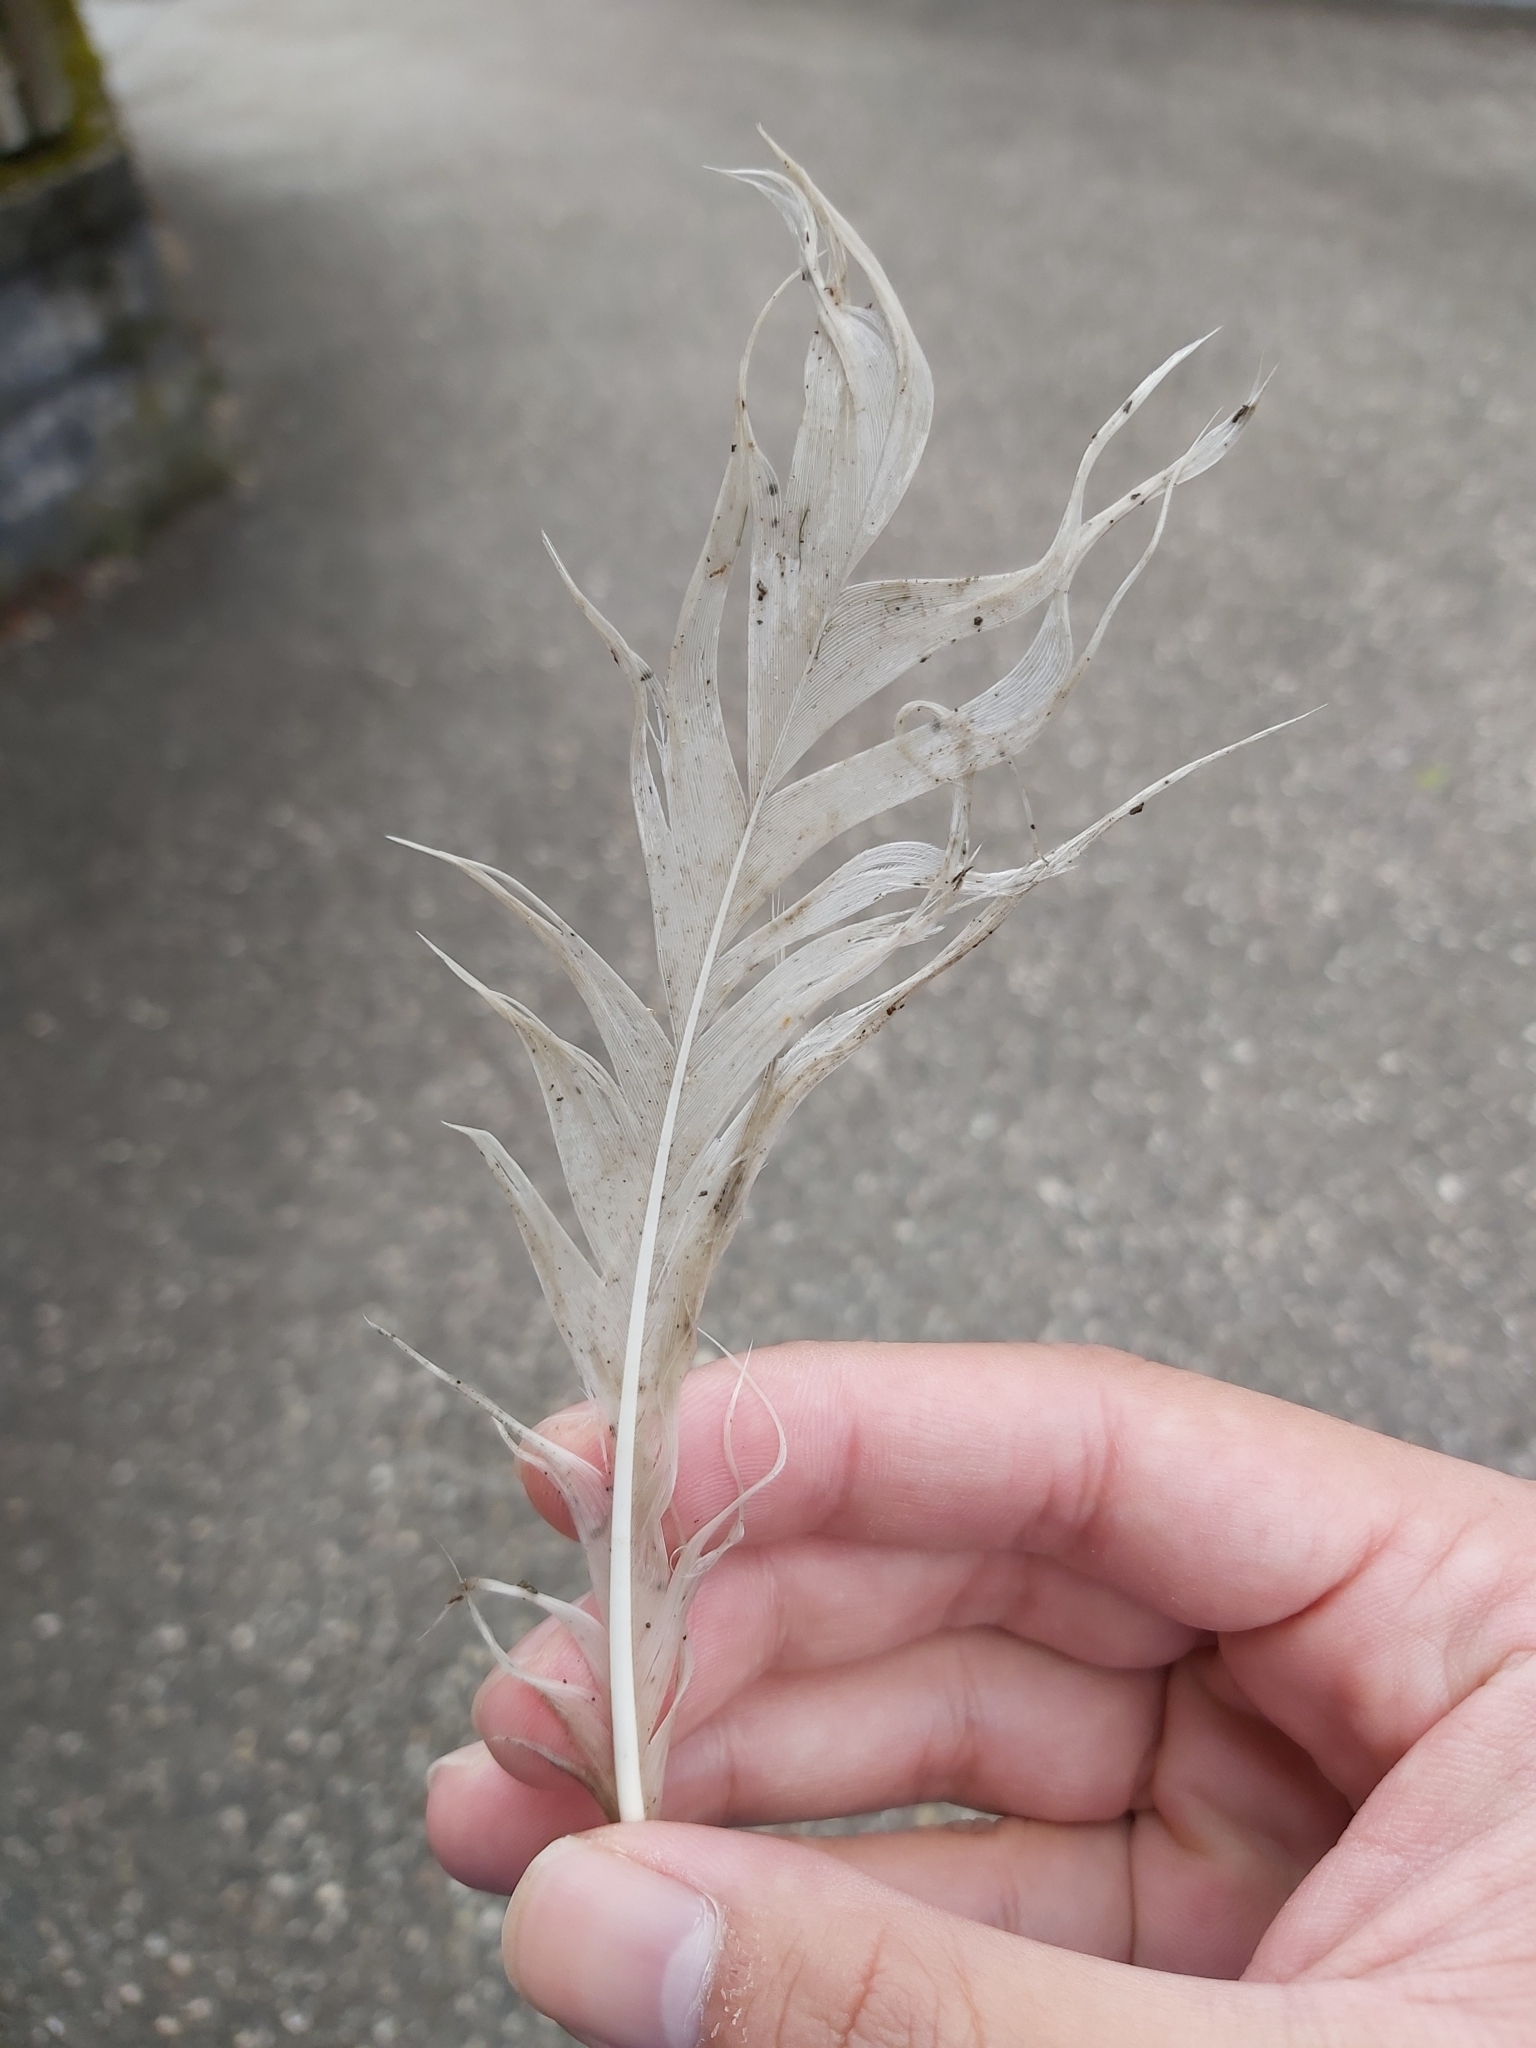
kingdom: Animalia
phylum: Chordata
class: Aves
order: Anseriformes
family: Anatidae
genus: Cygnus
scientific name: Cygnus olor
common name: Mute swan
